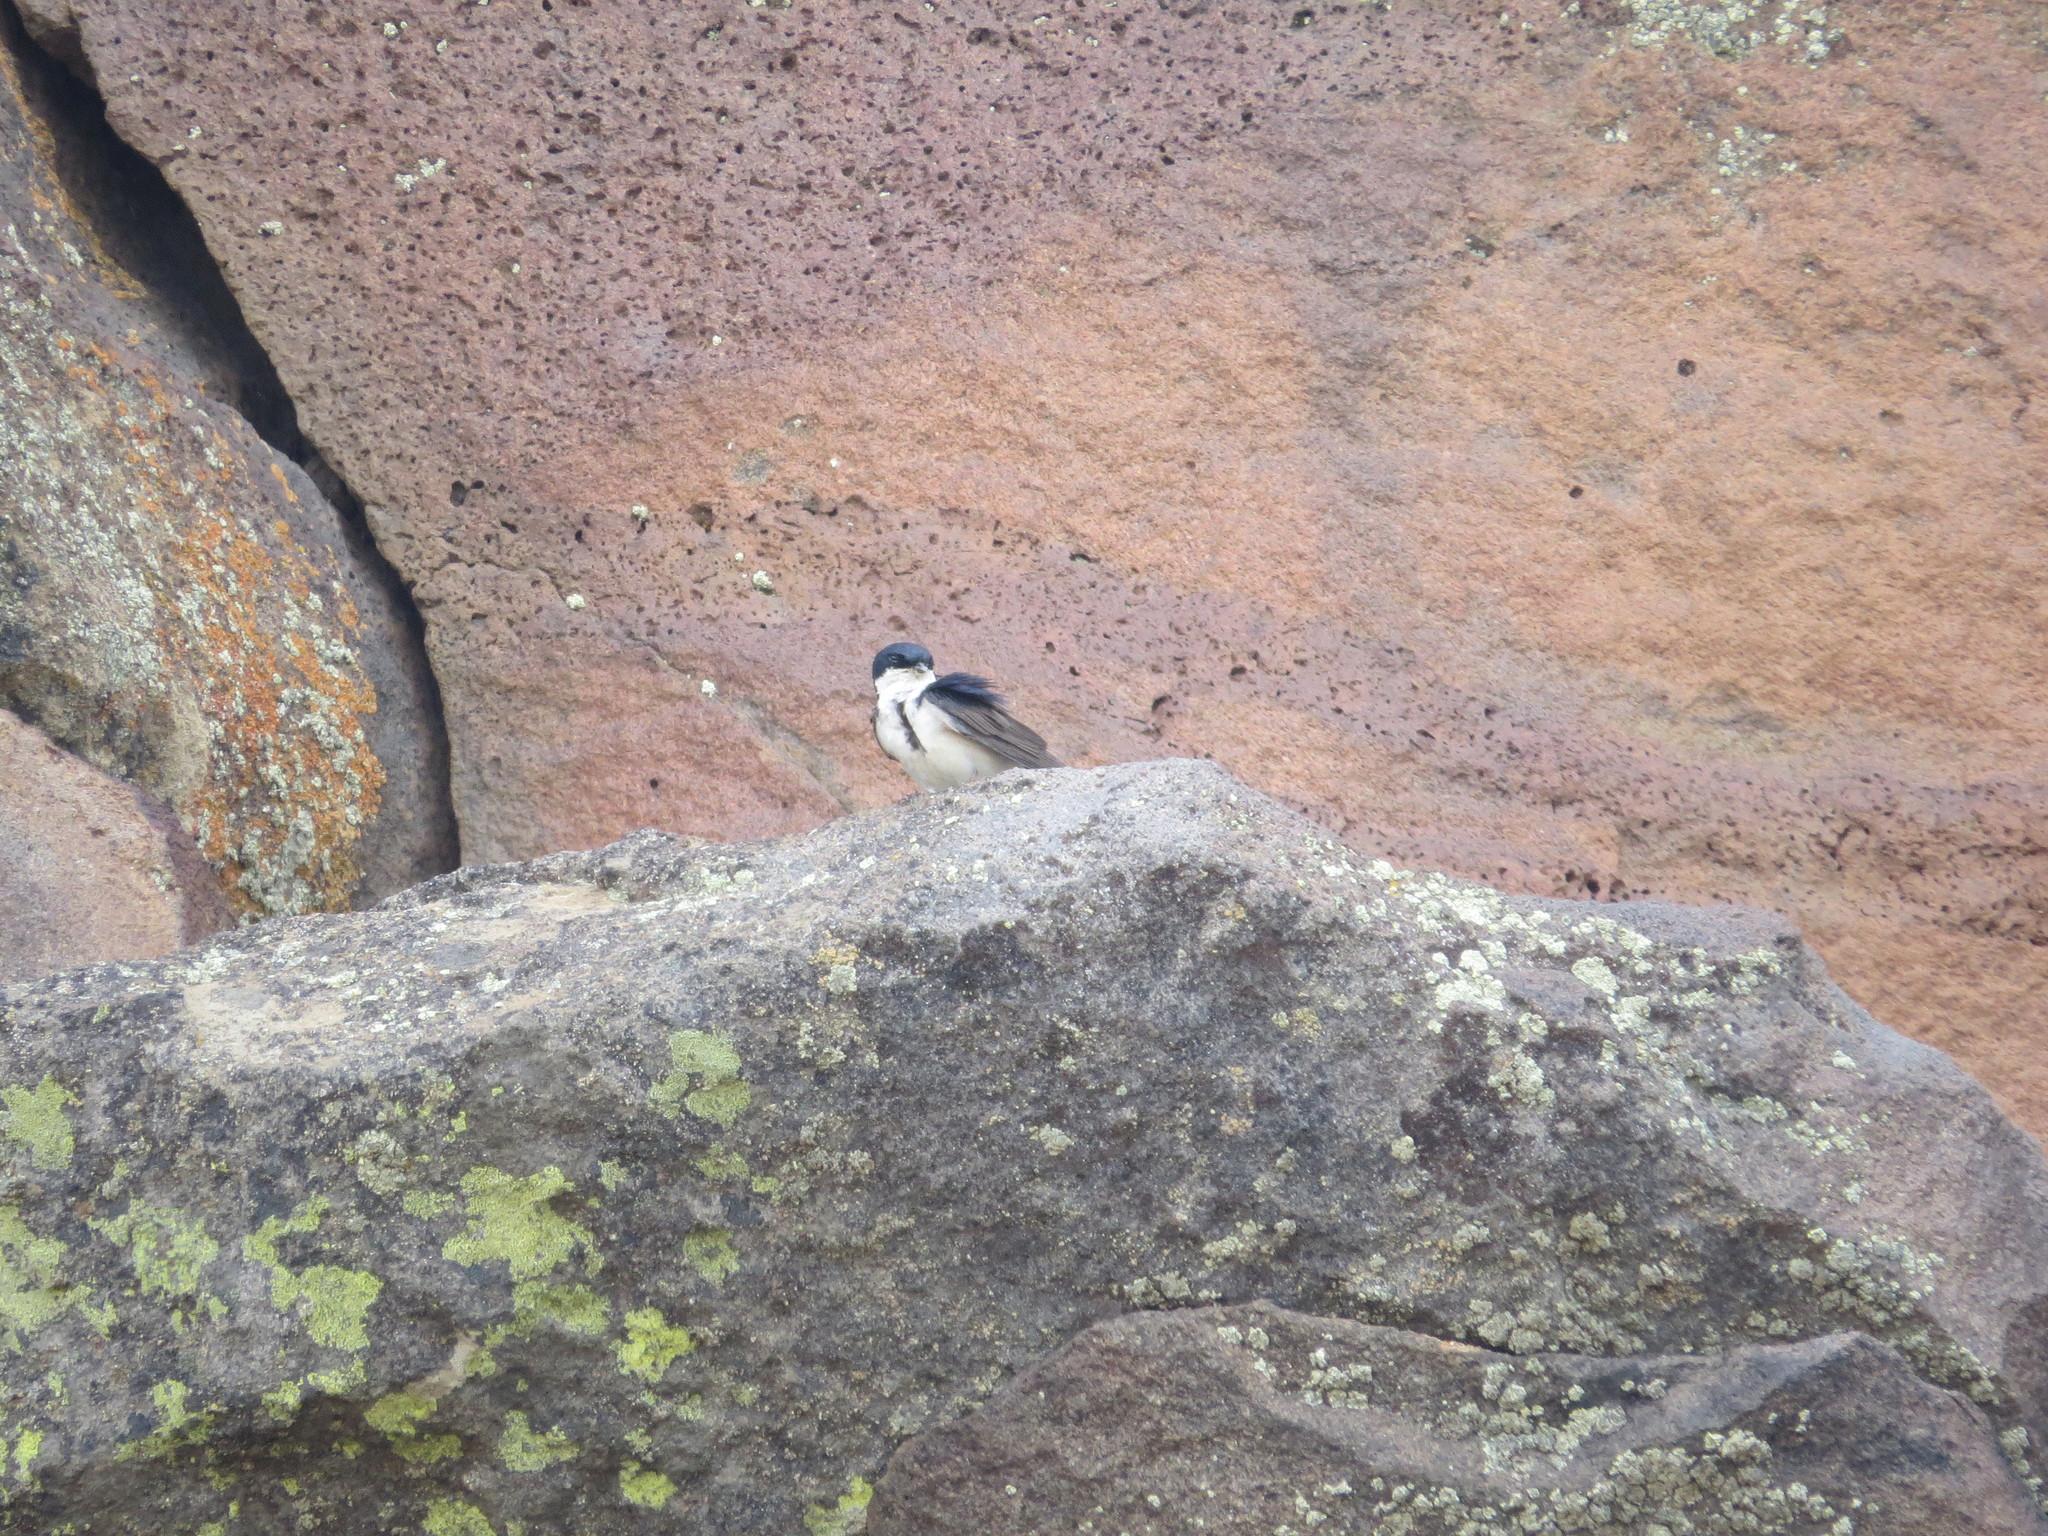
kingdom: Animalia
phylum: Chordata
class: Aves
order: Passeriformes
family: Hirundinidae
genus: Notiochelidon
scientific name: Notiochelidon cyanoleuca
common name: Blue-and-white swallow
